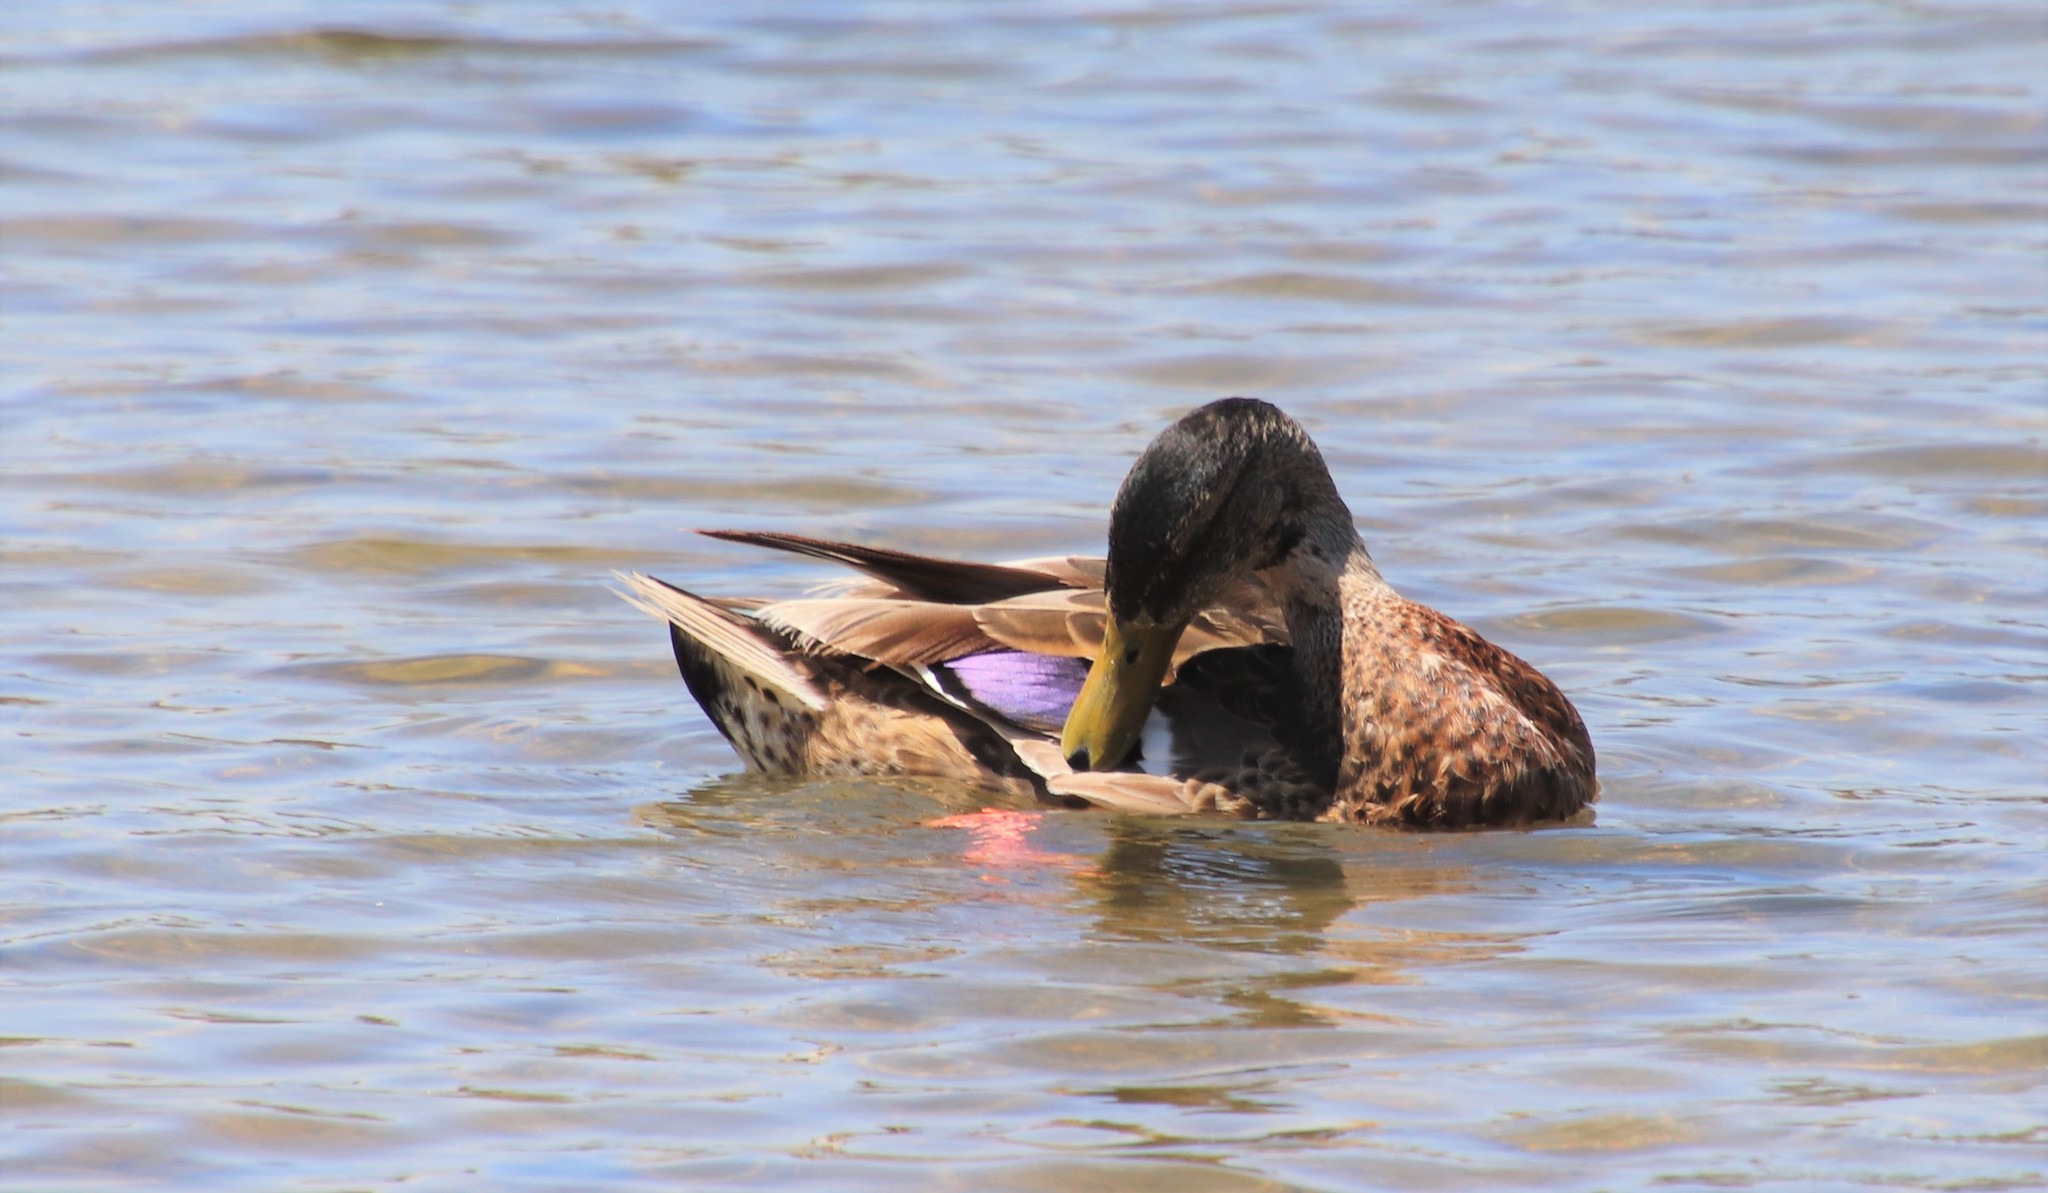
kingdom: Animalia
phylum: Chordata
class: Aves
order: Anseriformes
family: Anatidae
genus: Anas
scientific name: Anas platyrhynchos
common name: Mallard
